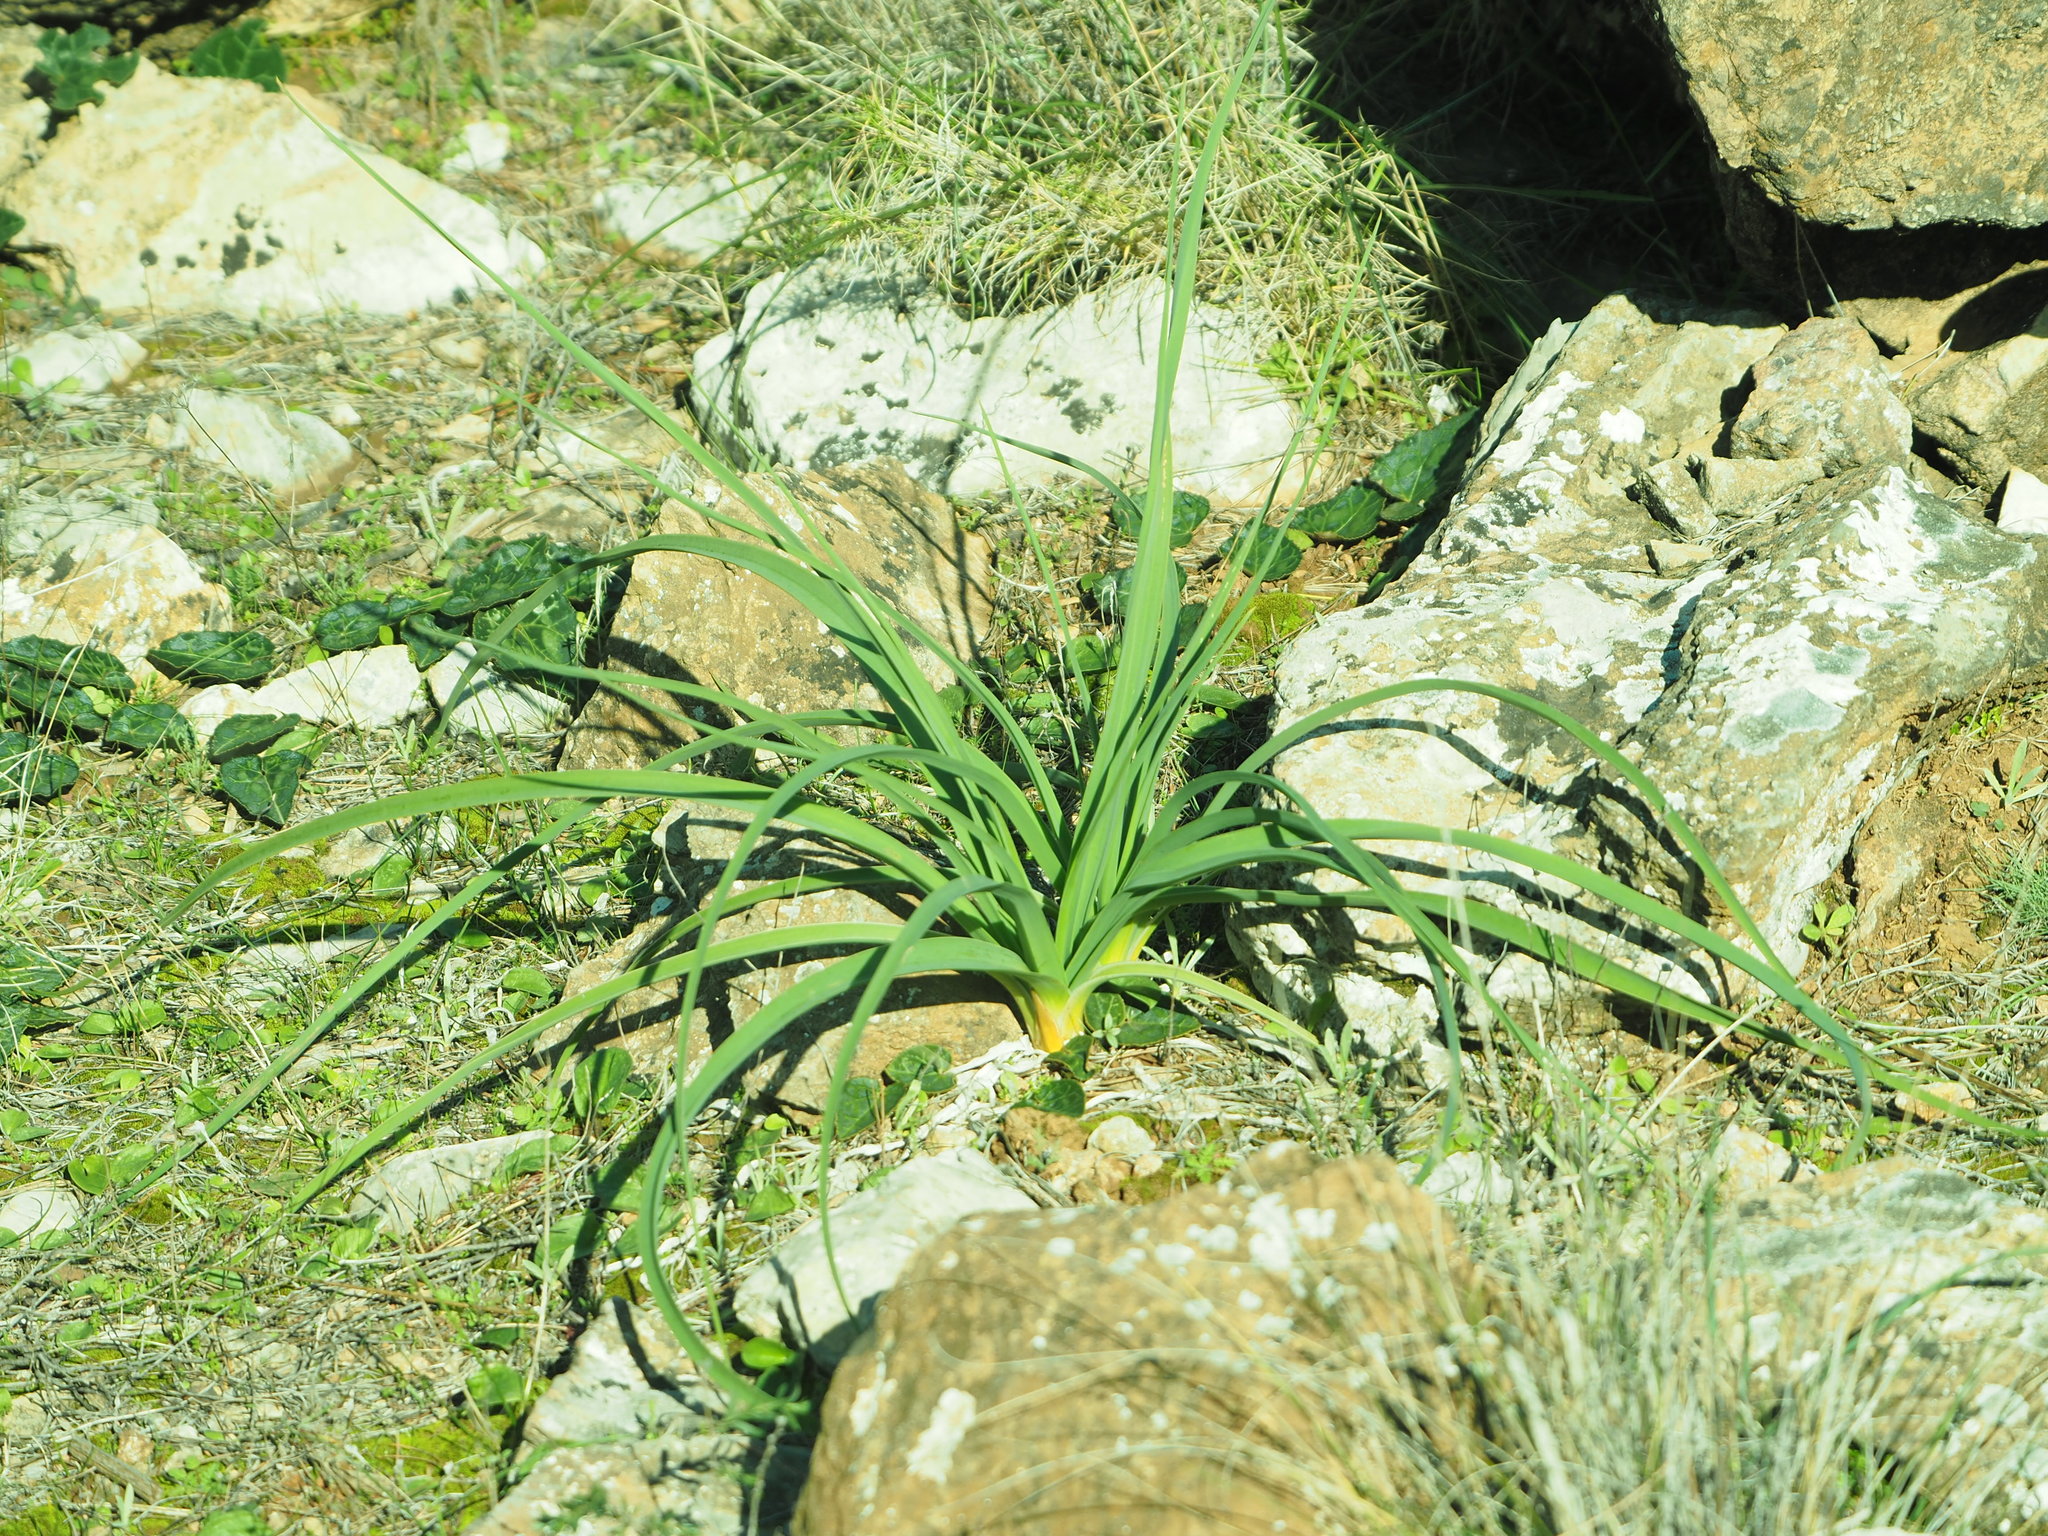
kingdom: Plantae
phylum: Tracheophyta
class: Liliopsida
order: Asparagales
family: Asphodelaceae
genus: Asphodelus
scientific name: Asphodelus ramosus
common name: Silverrod
